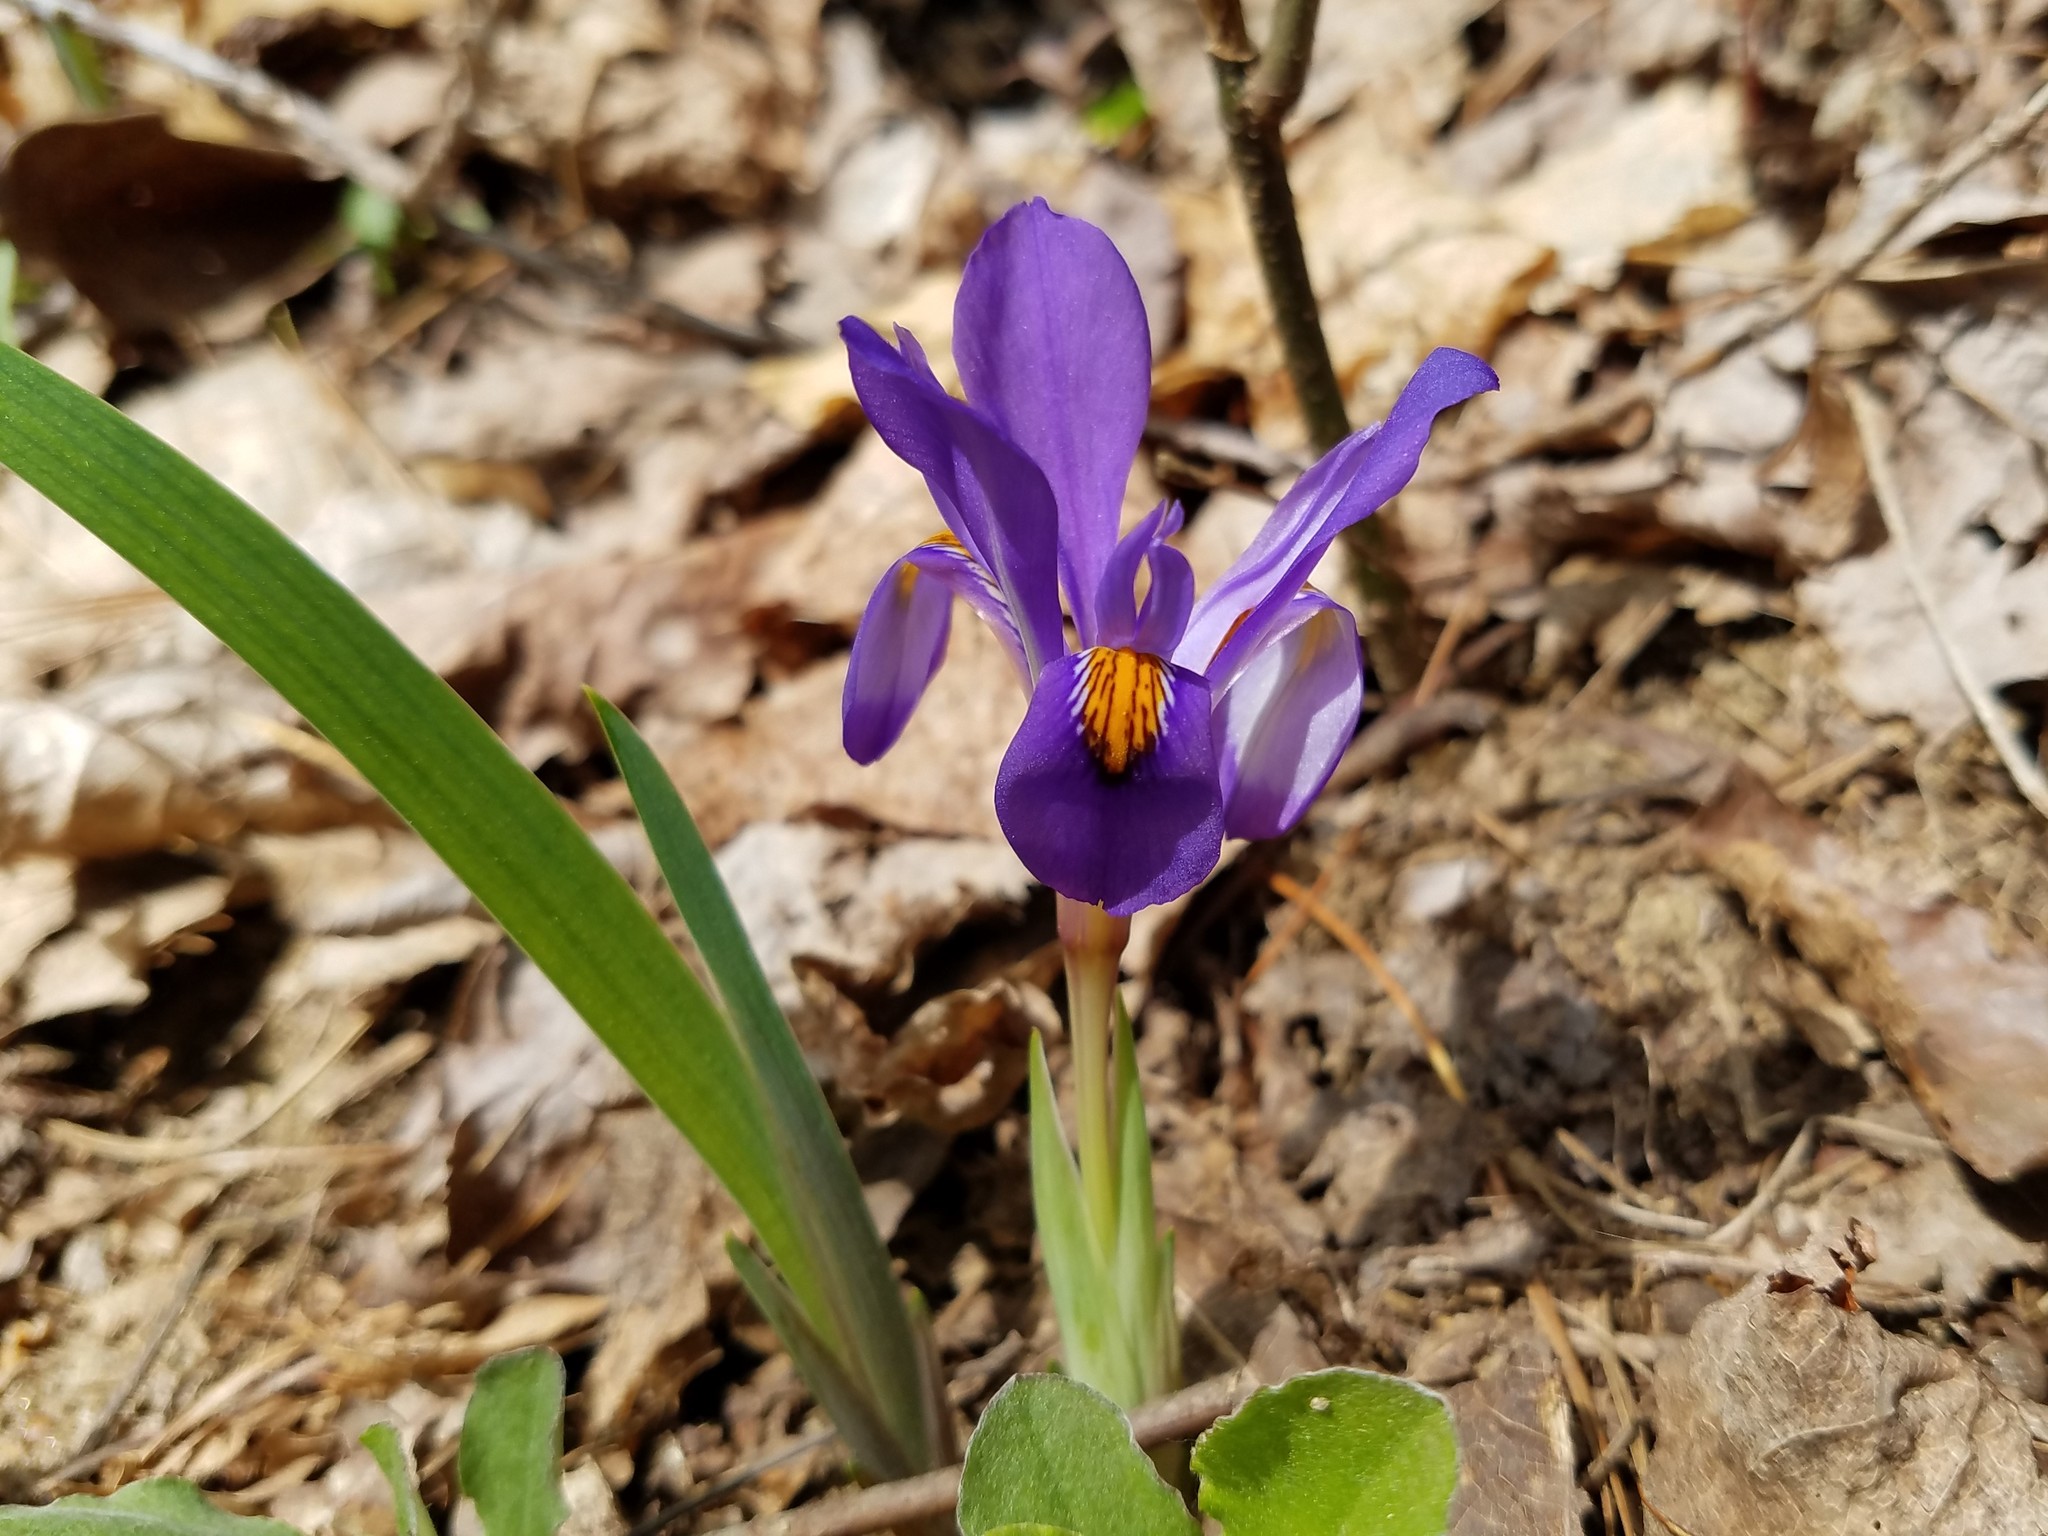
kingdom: Plantae
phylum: Tracheophyta
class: Liliopsida
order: Asparagales
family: Iridaceae
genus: Iris
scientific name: Iris verna
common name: Dwarf iris
